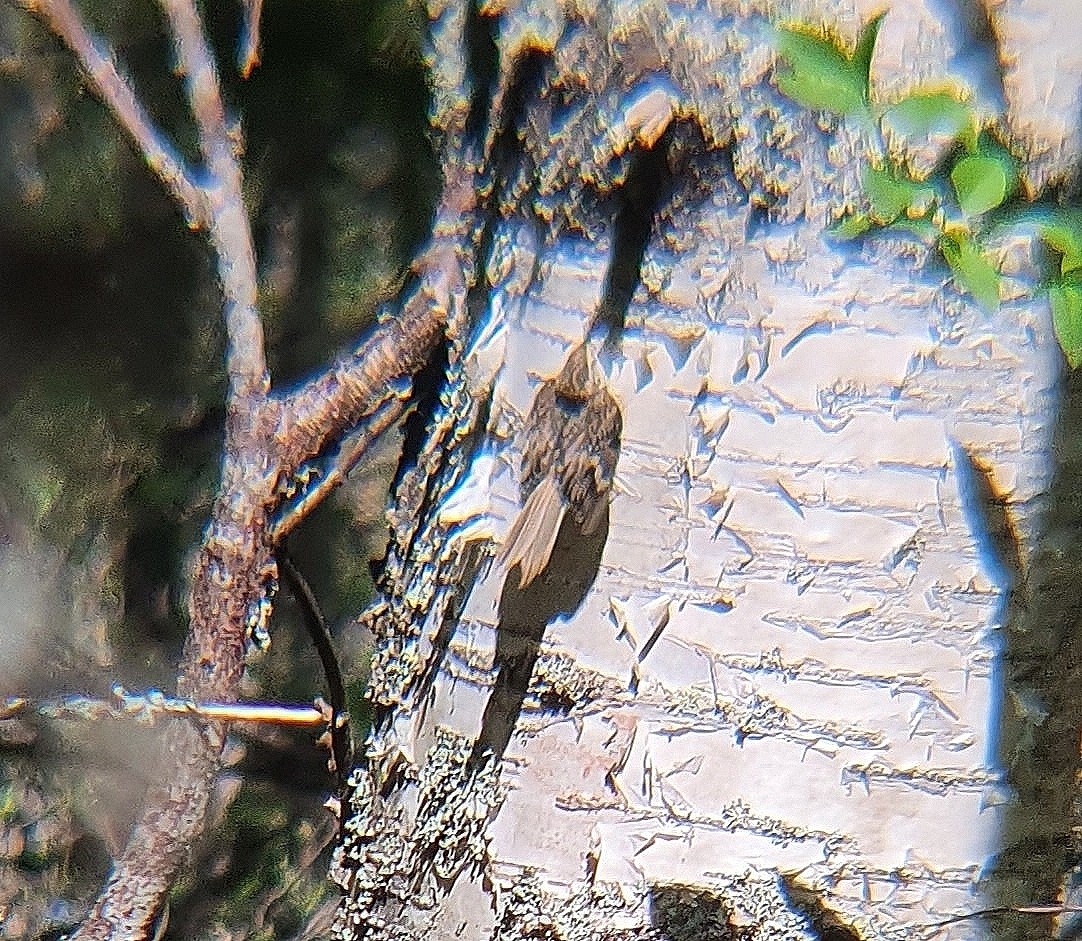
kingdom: Animalia
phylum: Chordata
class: Aves
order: Passeriformes
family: Certhiidae
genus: Certhia
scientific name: Certhia familiaris
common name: Eurasian treecreeper
